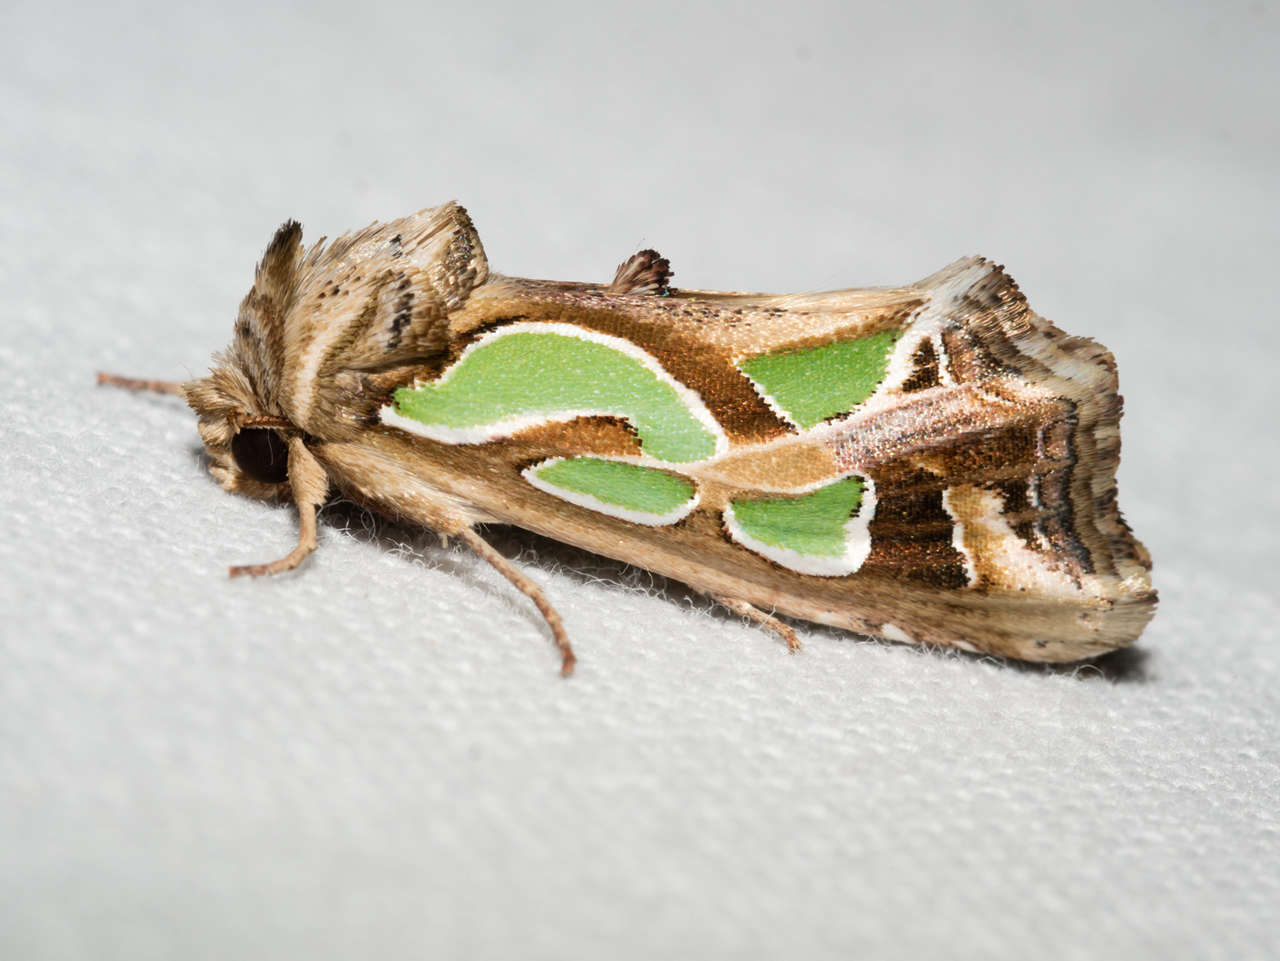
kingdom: Animalia
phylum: Arthropoda
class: Insecta
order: Lepidoptera
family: Noctuidae
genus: Cosmodes
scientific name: Cosmodes elegans
